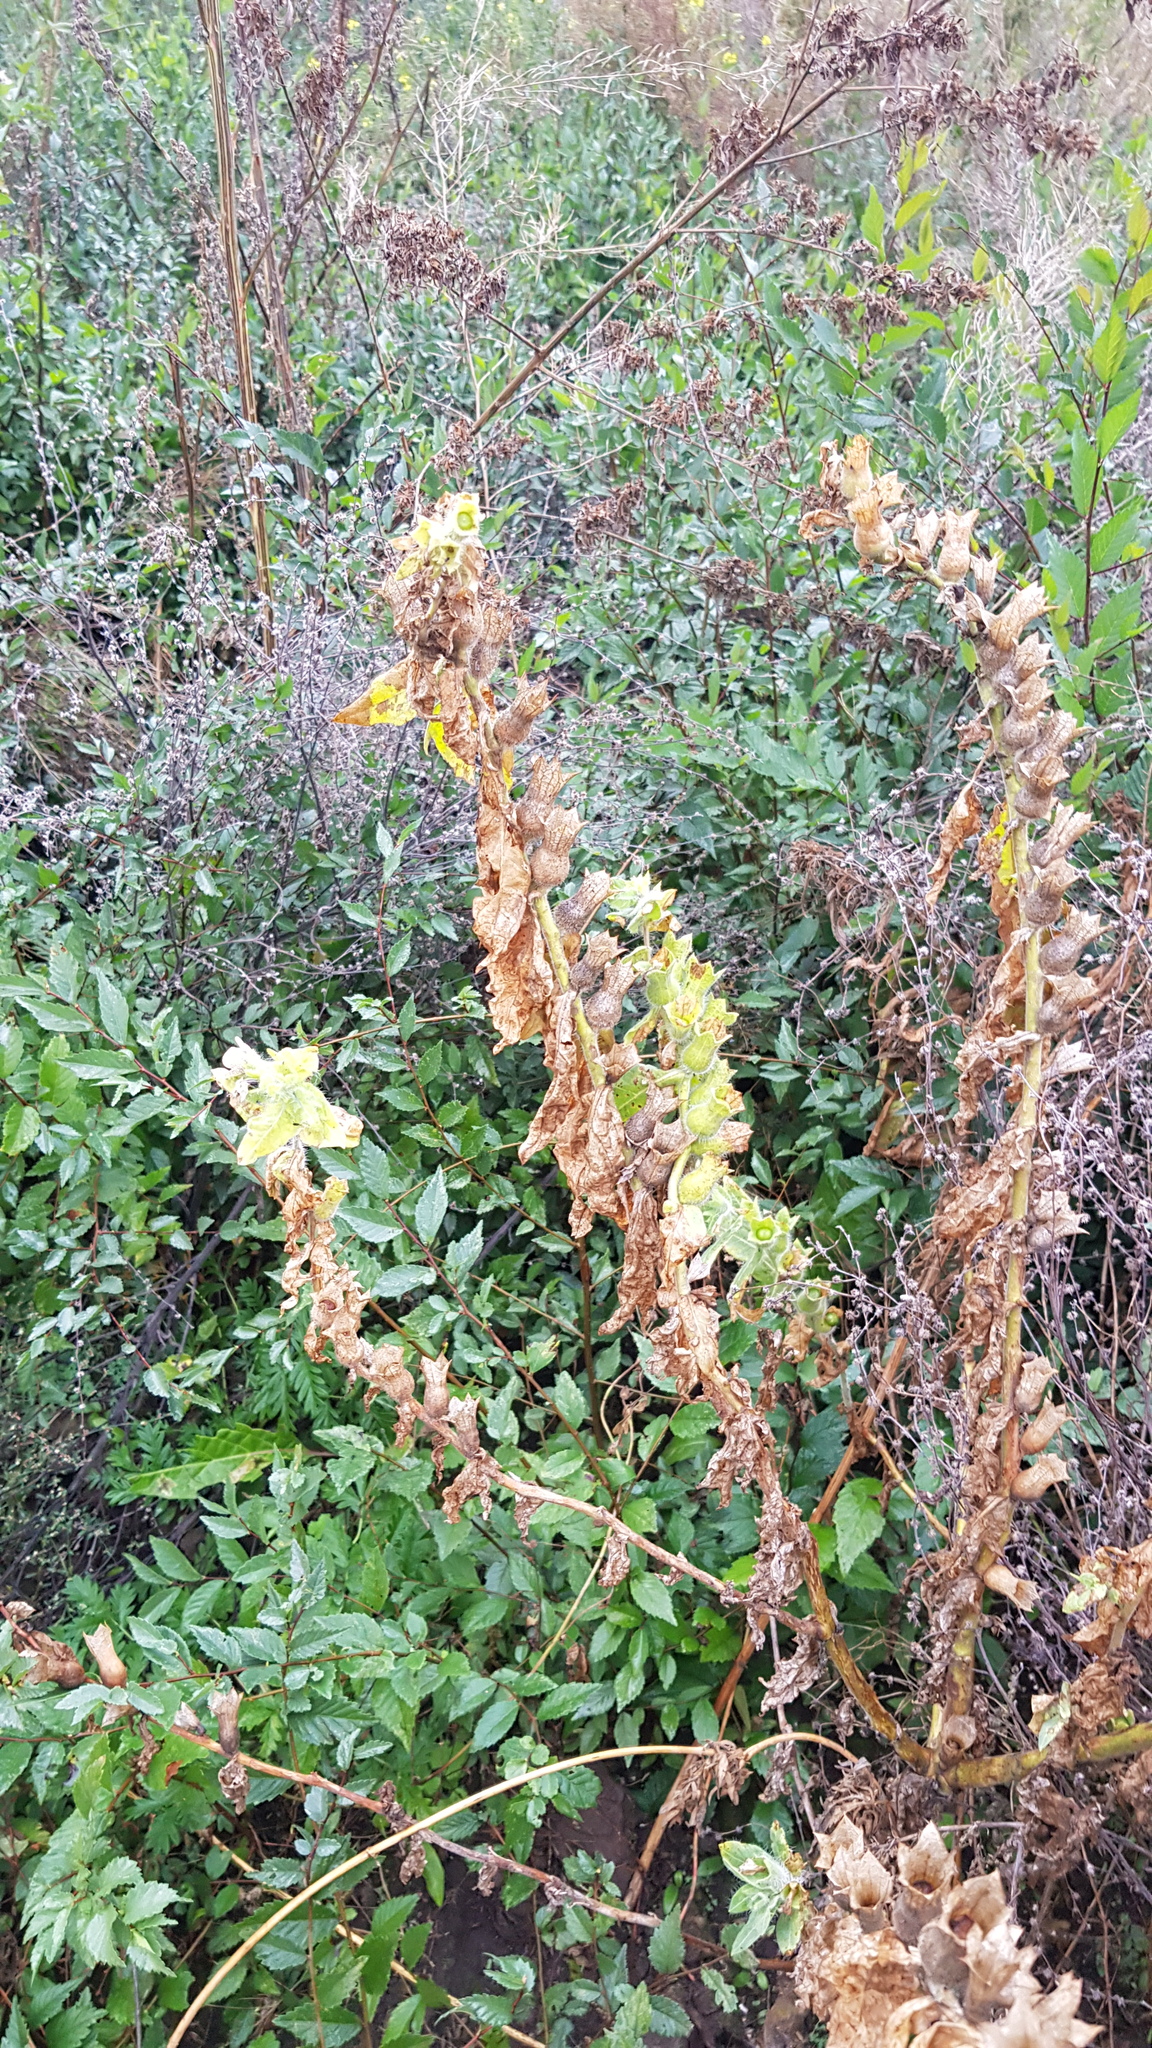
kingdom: Plantae
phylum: Tracheophyta
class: Magnoliopsida
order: Solanales
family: Solanaceae
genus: Hyoscyamus
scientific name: Hyoscyamus niger
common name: Henbane
